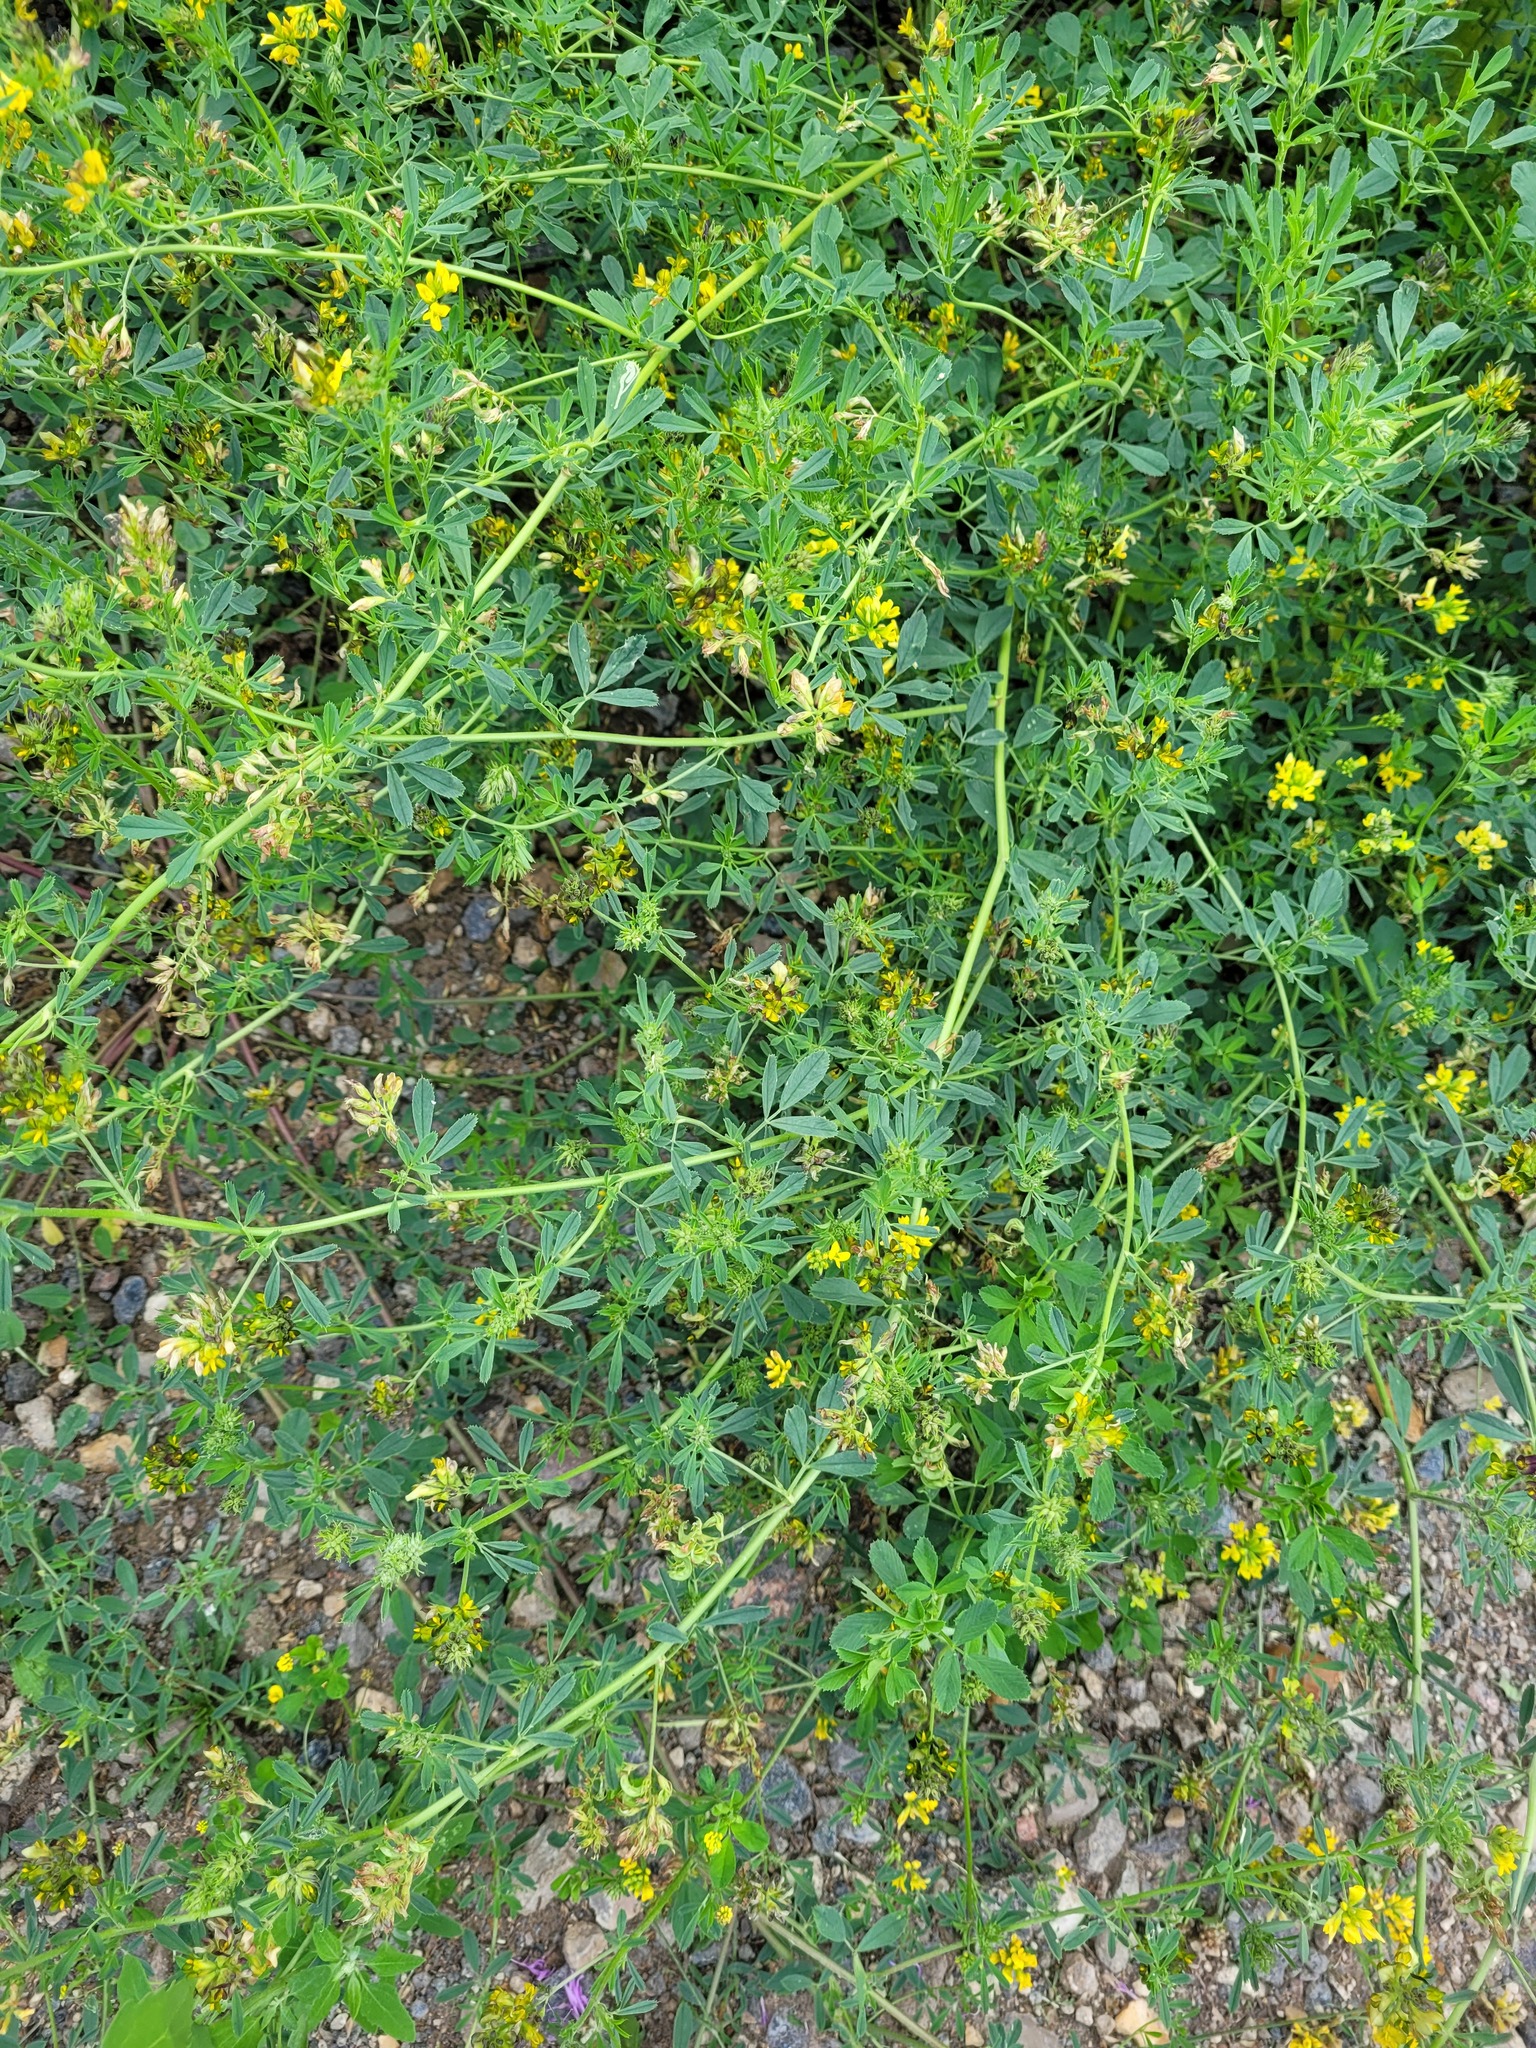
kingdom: Plantae
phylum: Tracheophyta
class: Magnoliopsida
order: Fabales
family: Fabaceae
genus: Medicago
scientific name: Medicago varia
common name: Sand lucerne
